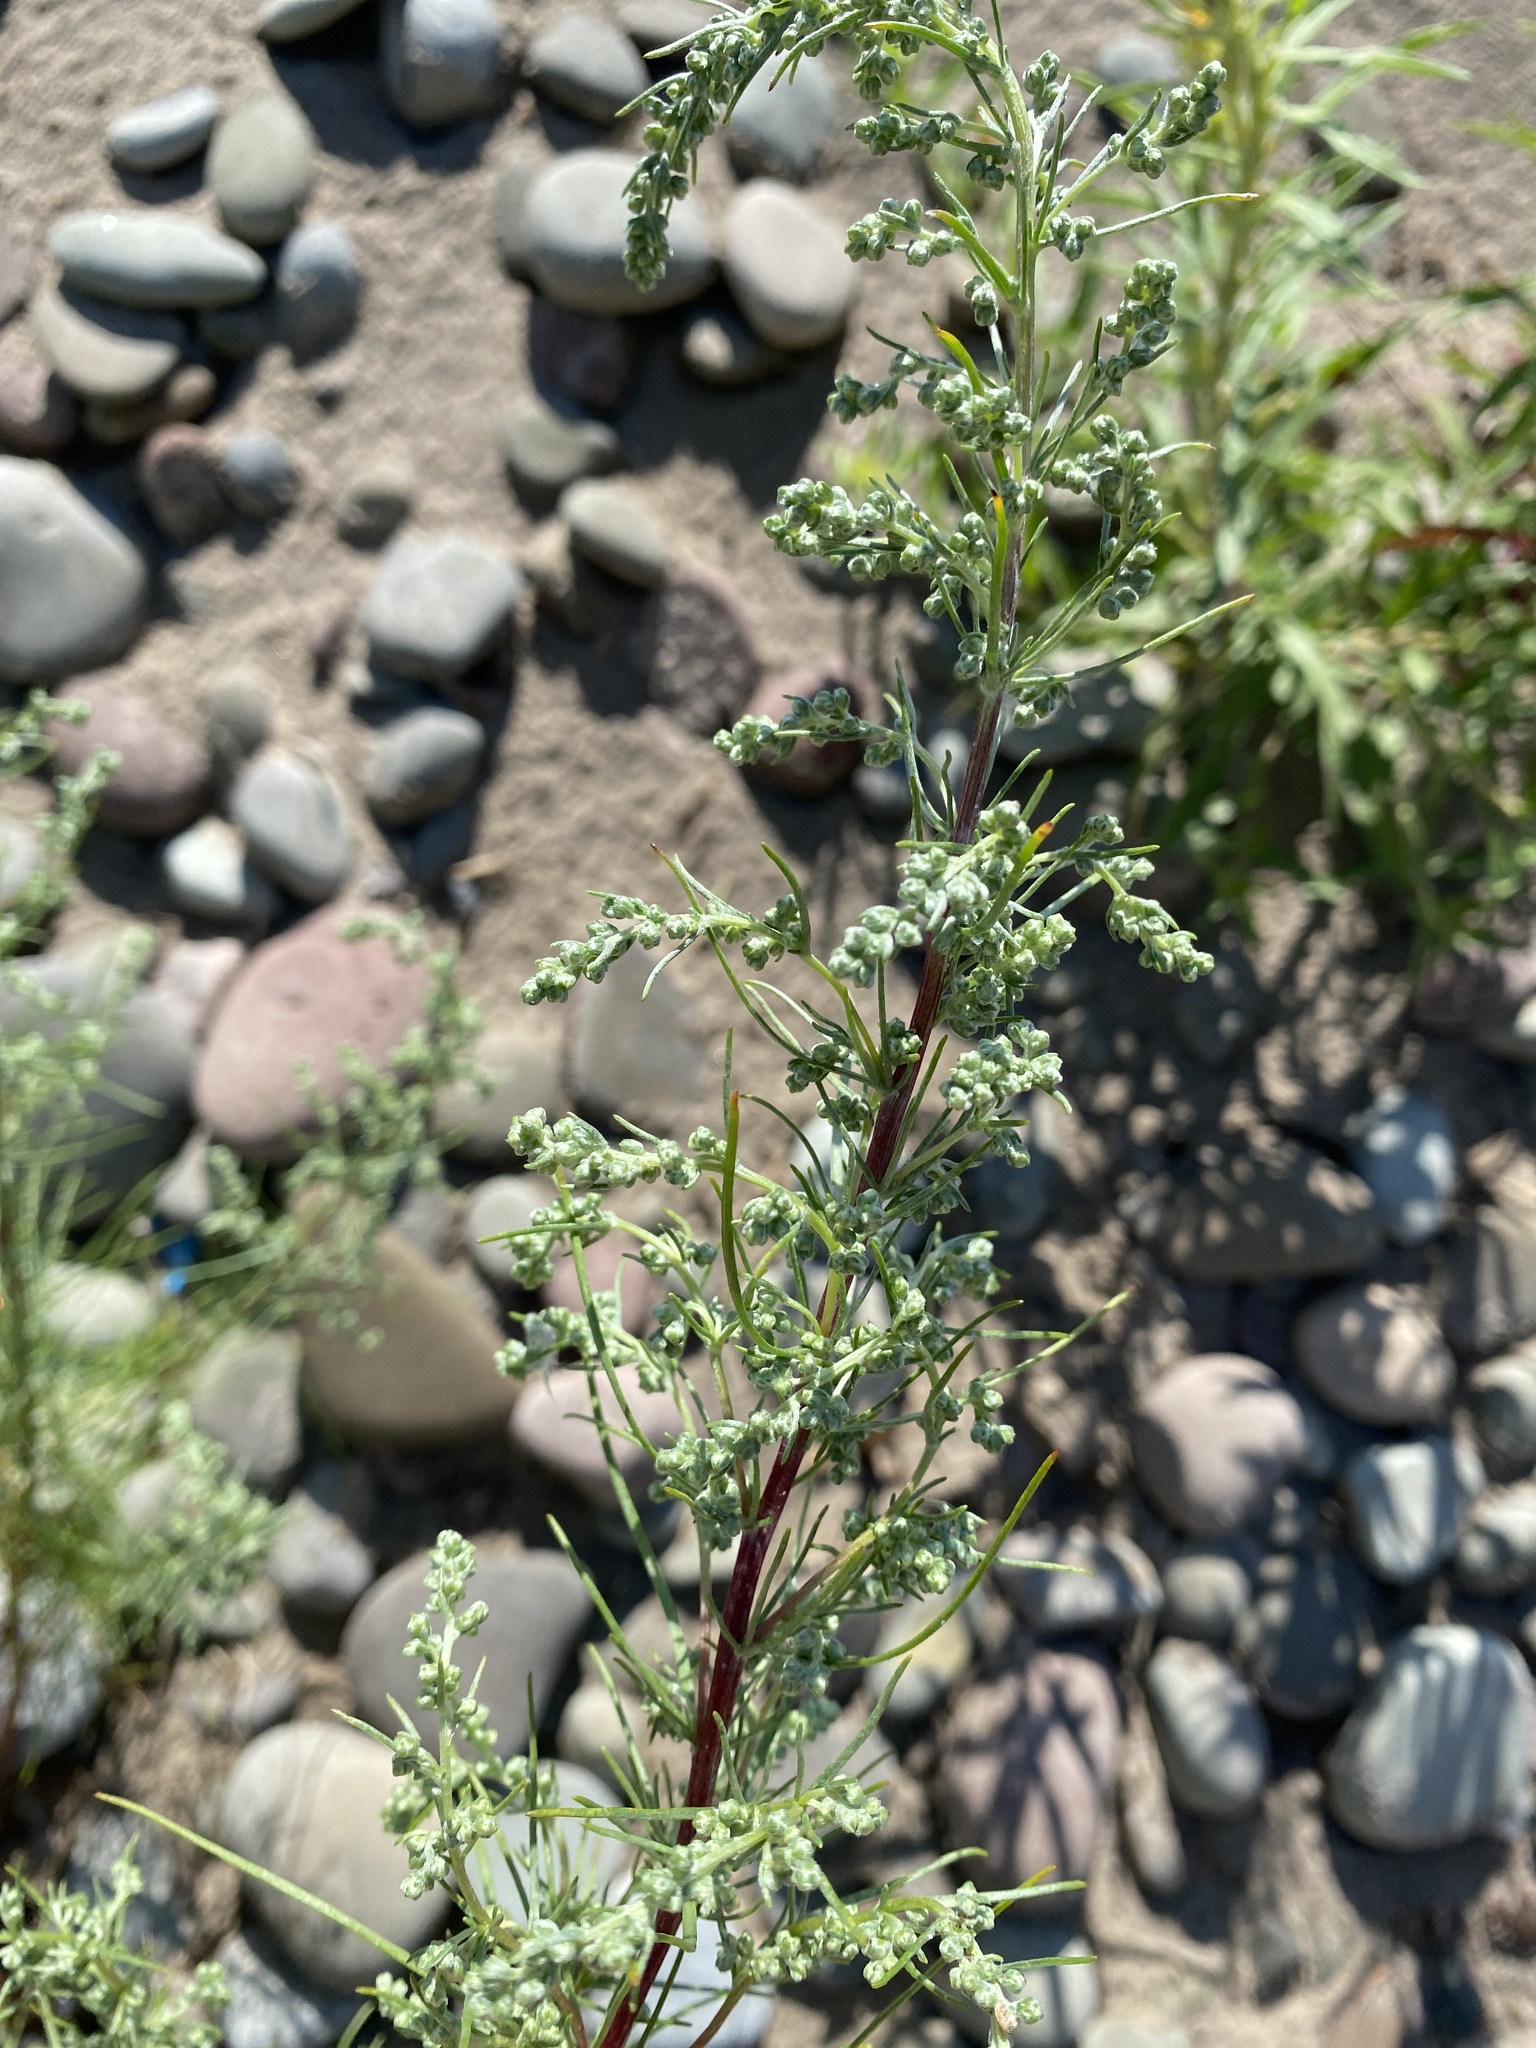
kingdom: Plantae
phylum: Tracheophyta
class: Magnoliopsida
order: Asterales
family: Asteraceae
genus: Artemisia
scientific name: Artemisia campestris
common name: Field wormwood
